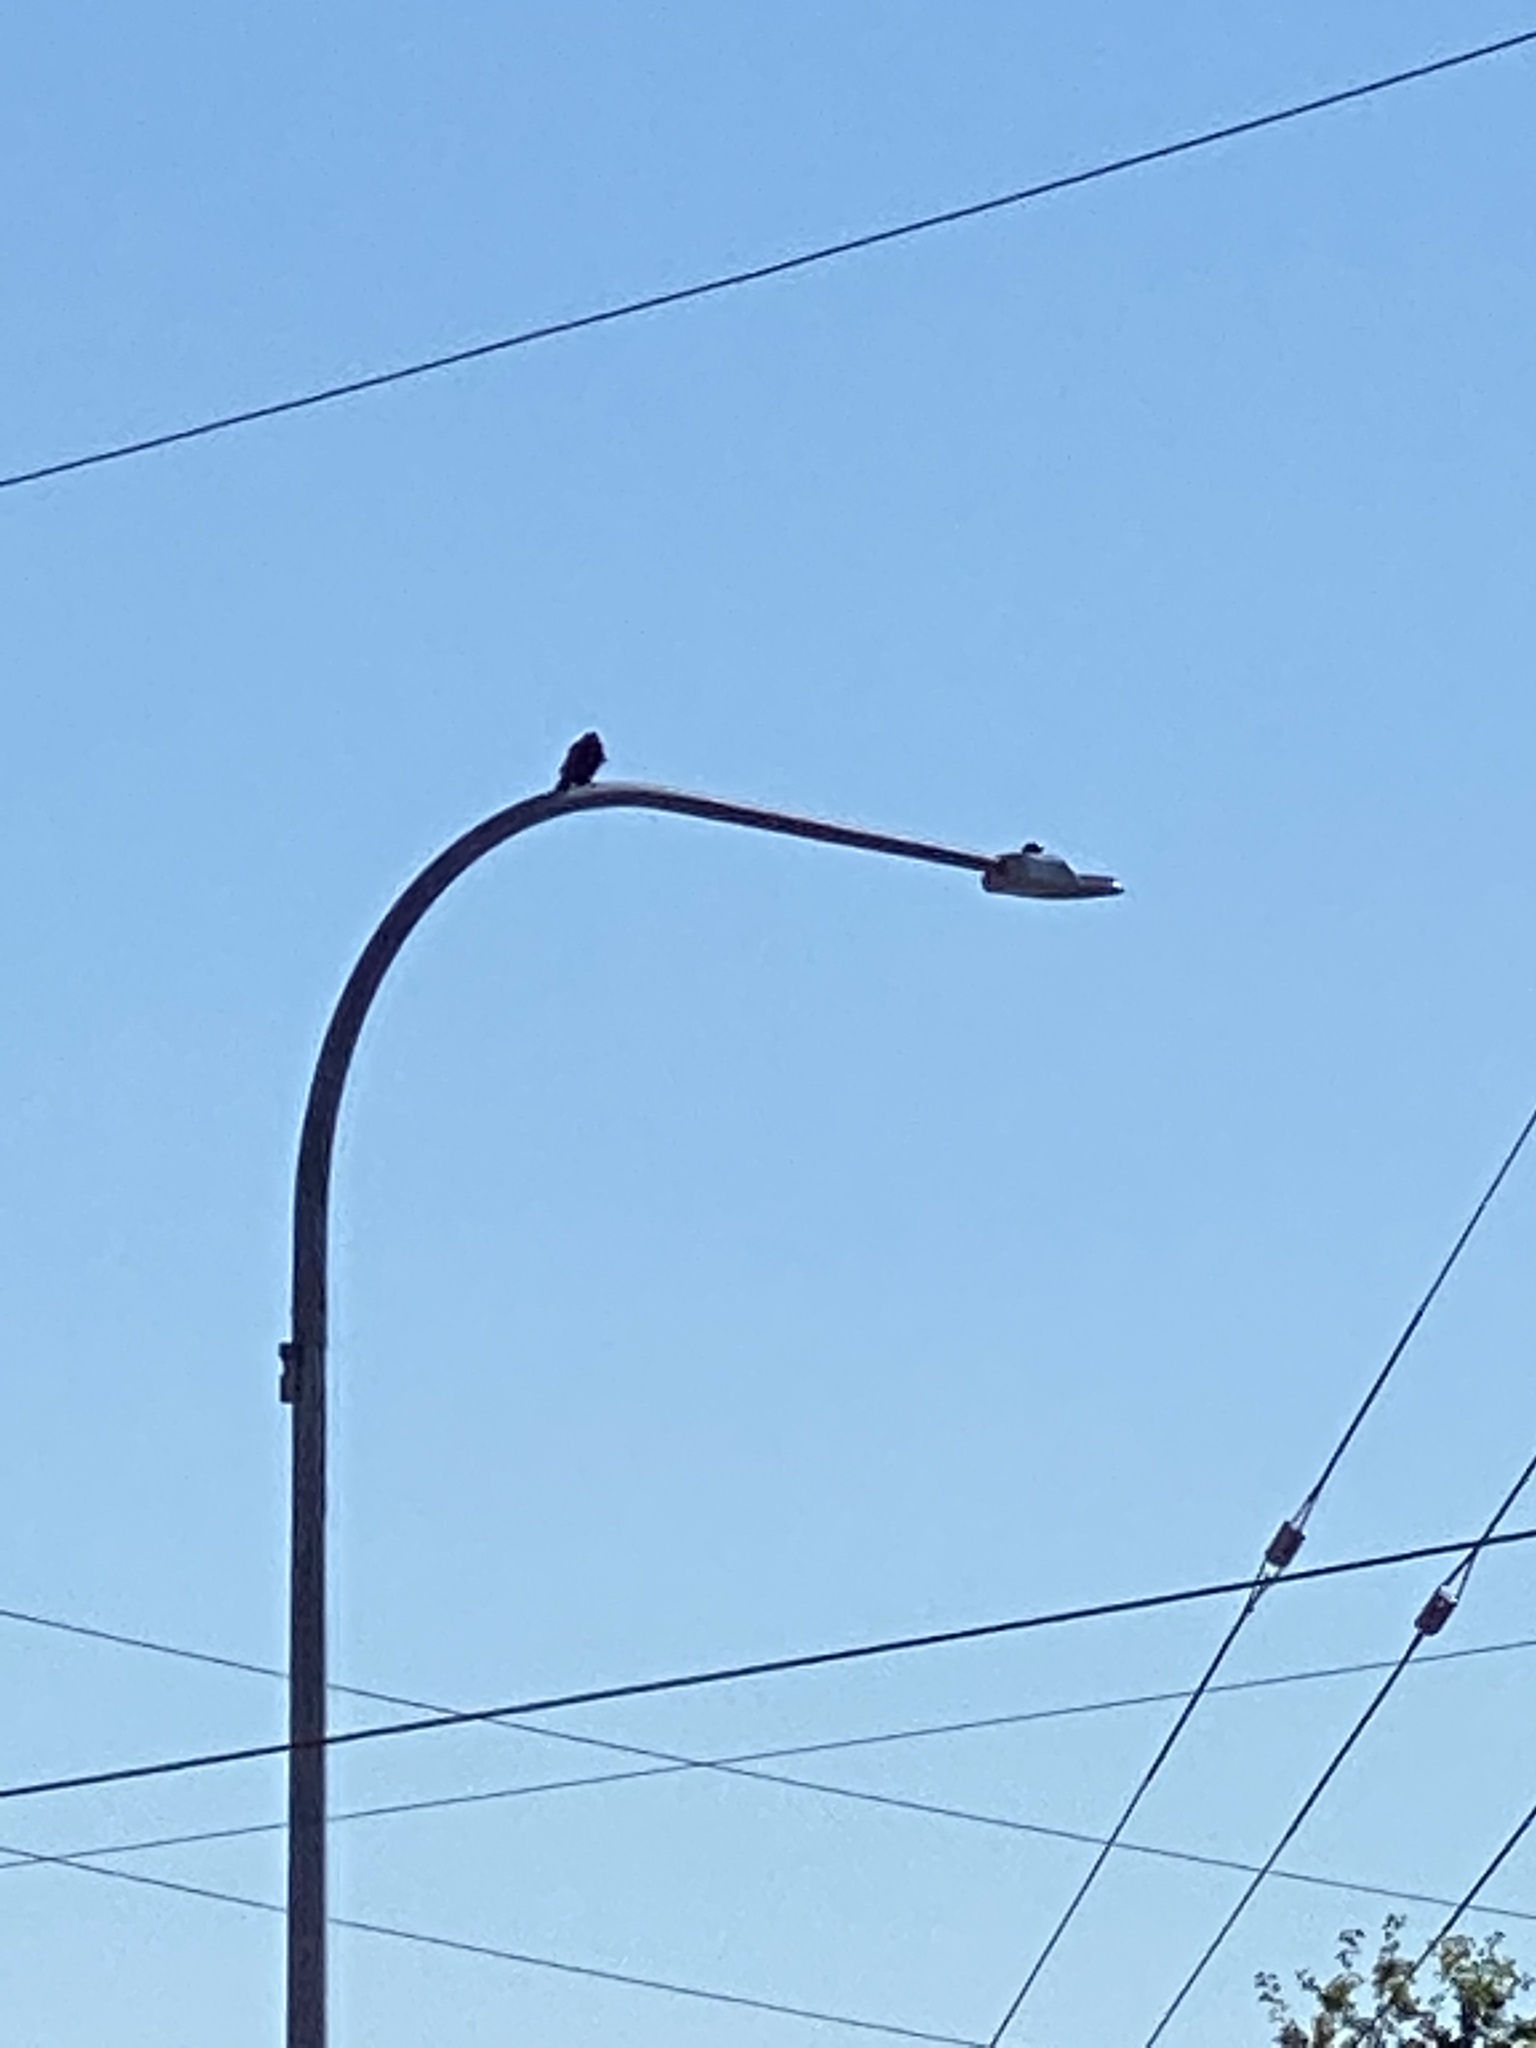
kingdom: Animalia
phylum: Chordata
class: Aves
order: Passeriformes
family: Corvidae
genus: Corvus
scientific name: Corvus brachyrhynchos
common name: American crow
